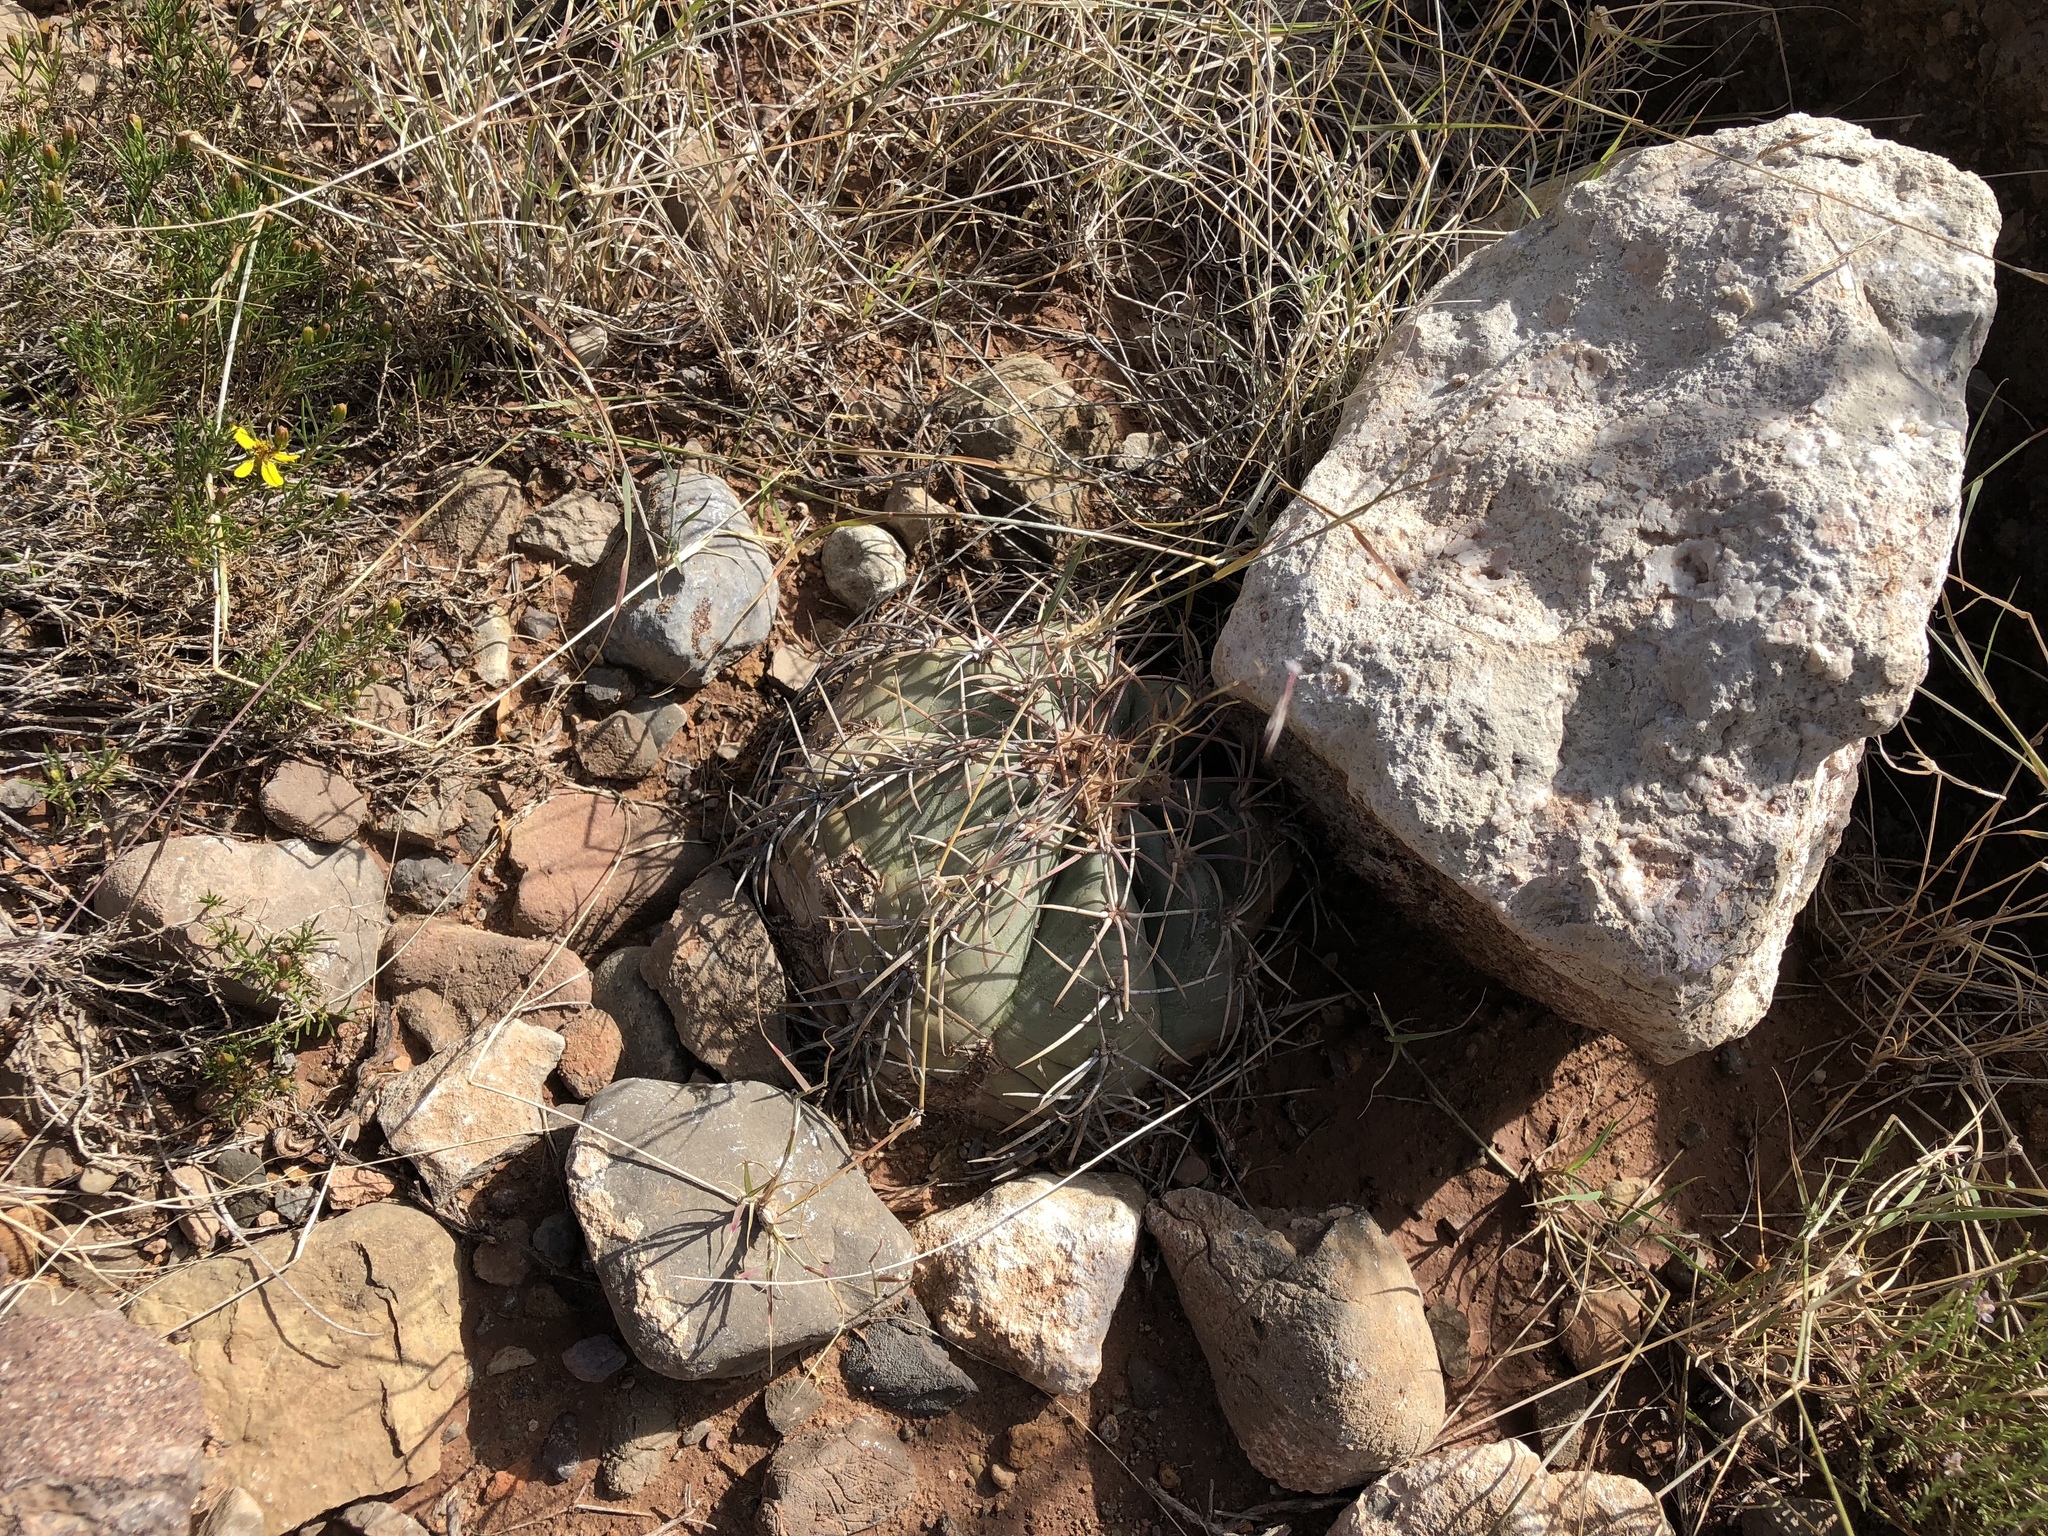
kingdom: Plantae
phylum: Tracheophyta
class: Magnoliopsida
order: Caryophyllales
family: Cactaceae
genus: Echinocactus
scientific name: Echinocactus horizonthalonius
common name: Devilshead
